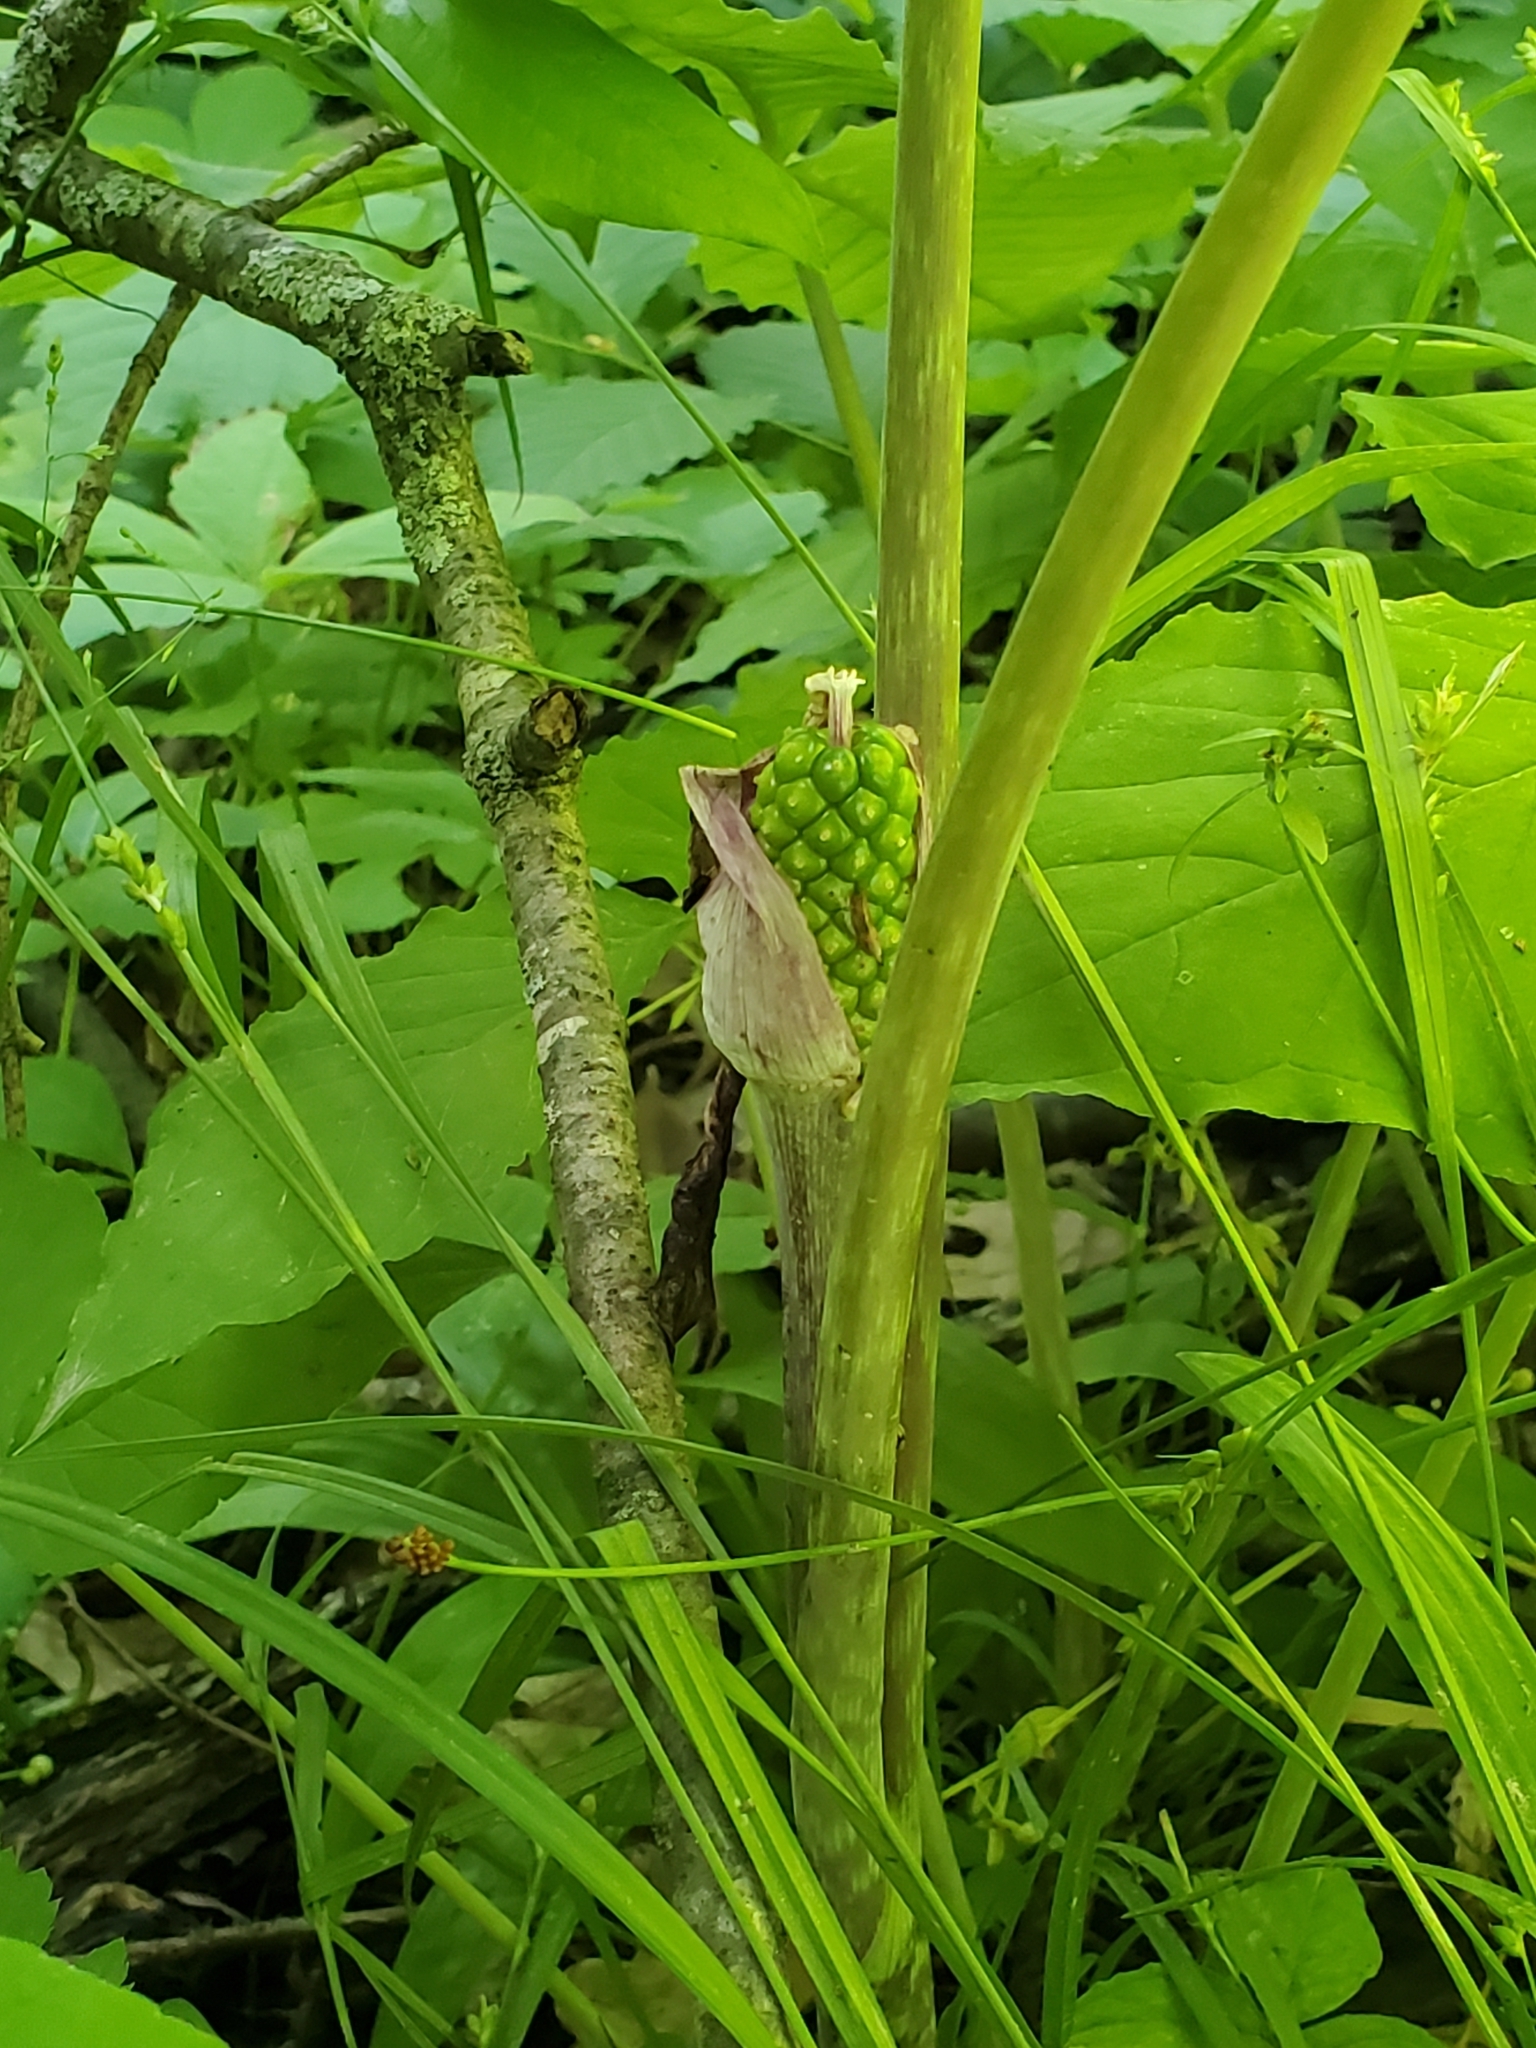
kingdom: Plantae
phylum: Tracheophyta
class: Liliopsida
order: Alismatales
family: Araceae
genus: Arisaema
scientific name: Arisaema triphyllum
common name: Jack-in-the-pulpit
